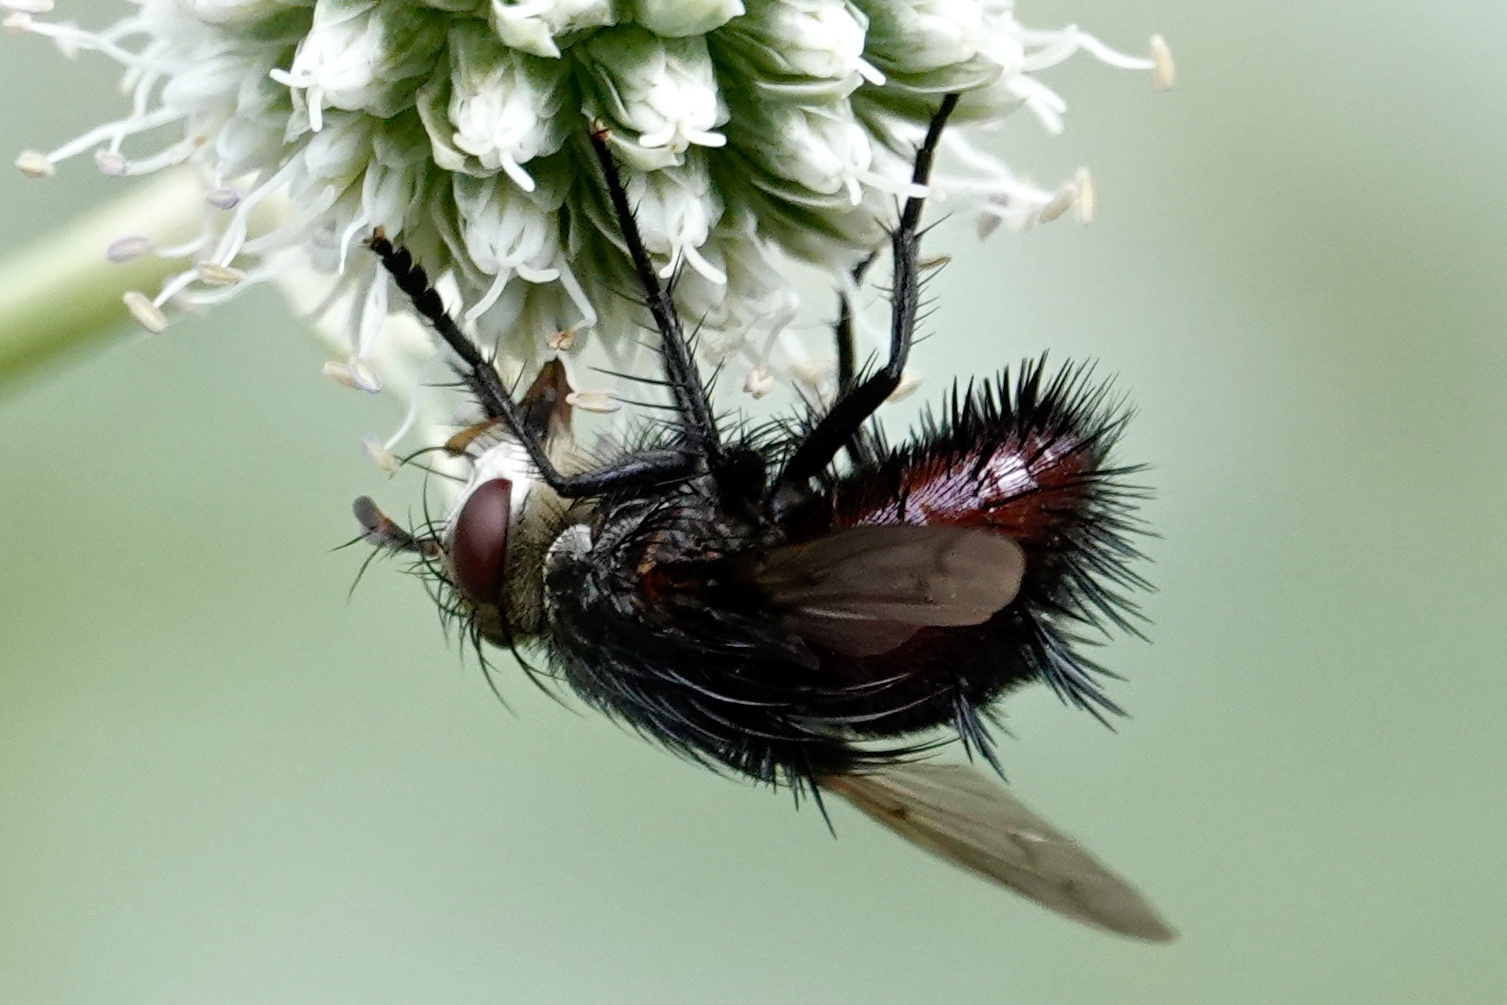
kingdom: Animalia
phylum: Arthropoda
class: Insecta
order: Diptera
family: Tachinidae
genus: Juriniopsis
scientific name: Juriniopsis adusta
